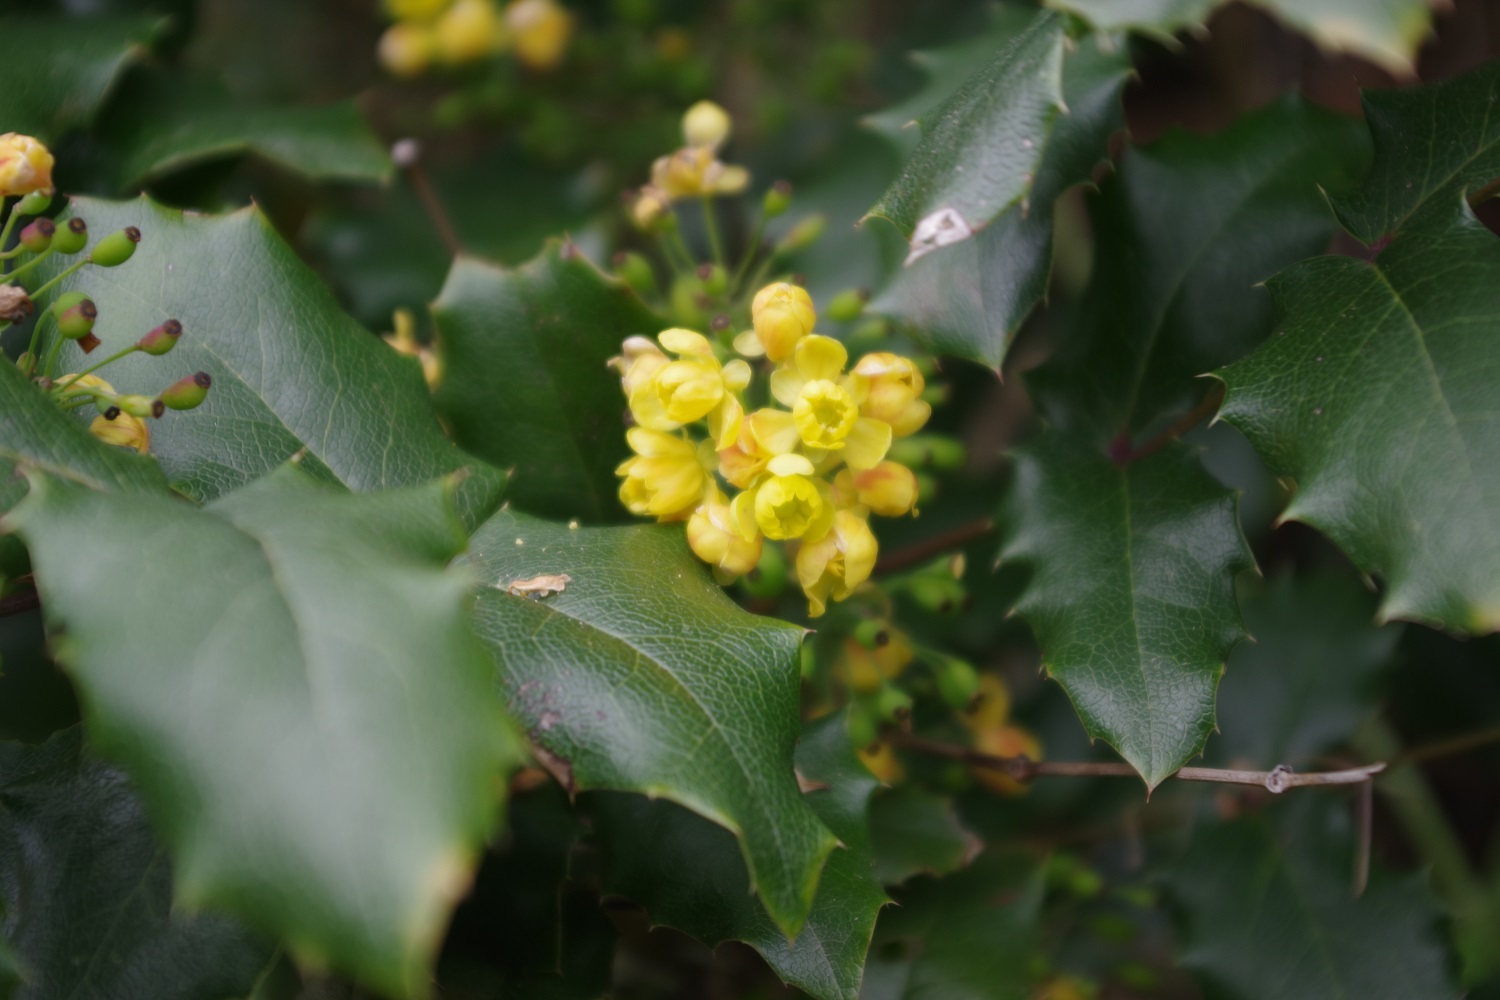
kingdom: Plantae
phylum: Tracheophyta
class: Magnoliopsida
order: Ranunculales
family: Berberidaceae
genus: Mahonia
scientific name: Mahonia aquifolium
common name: Oregon-grape
